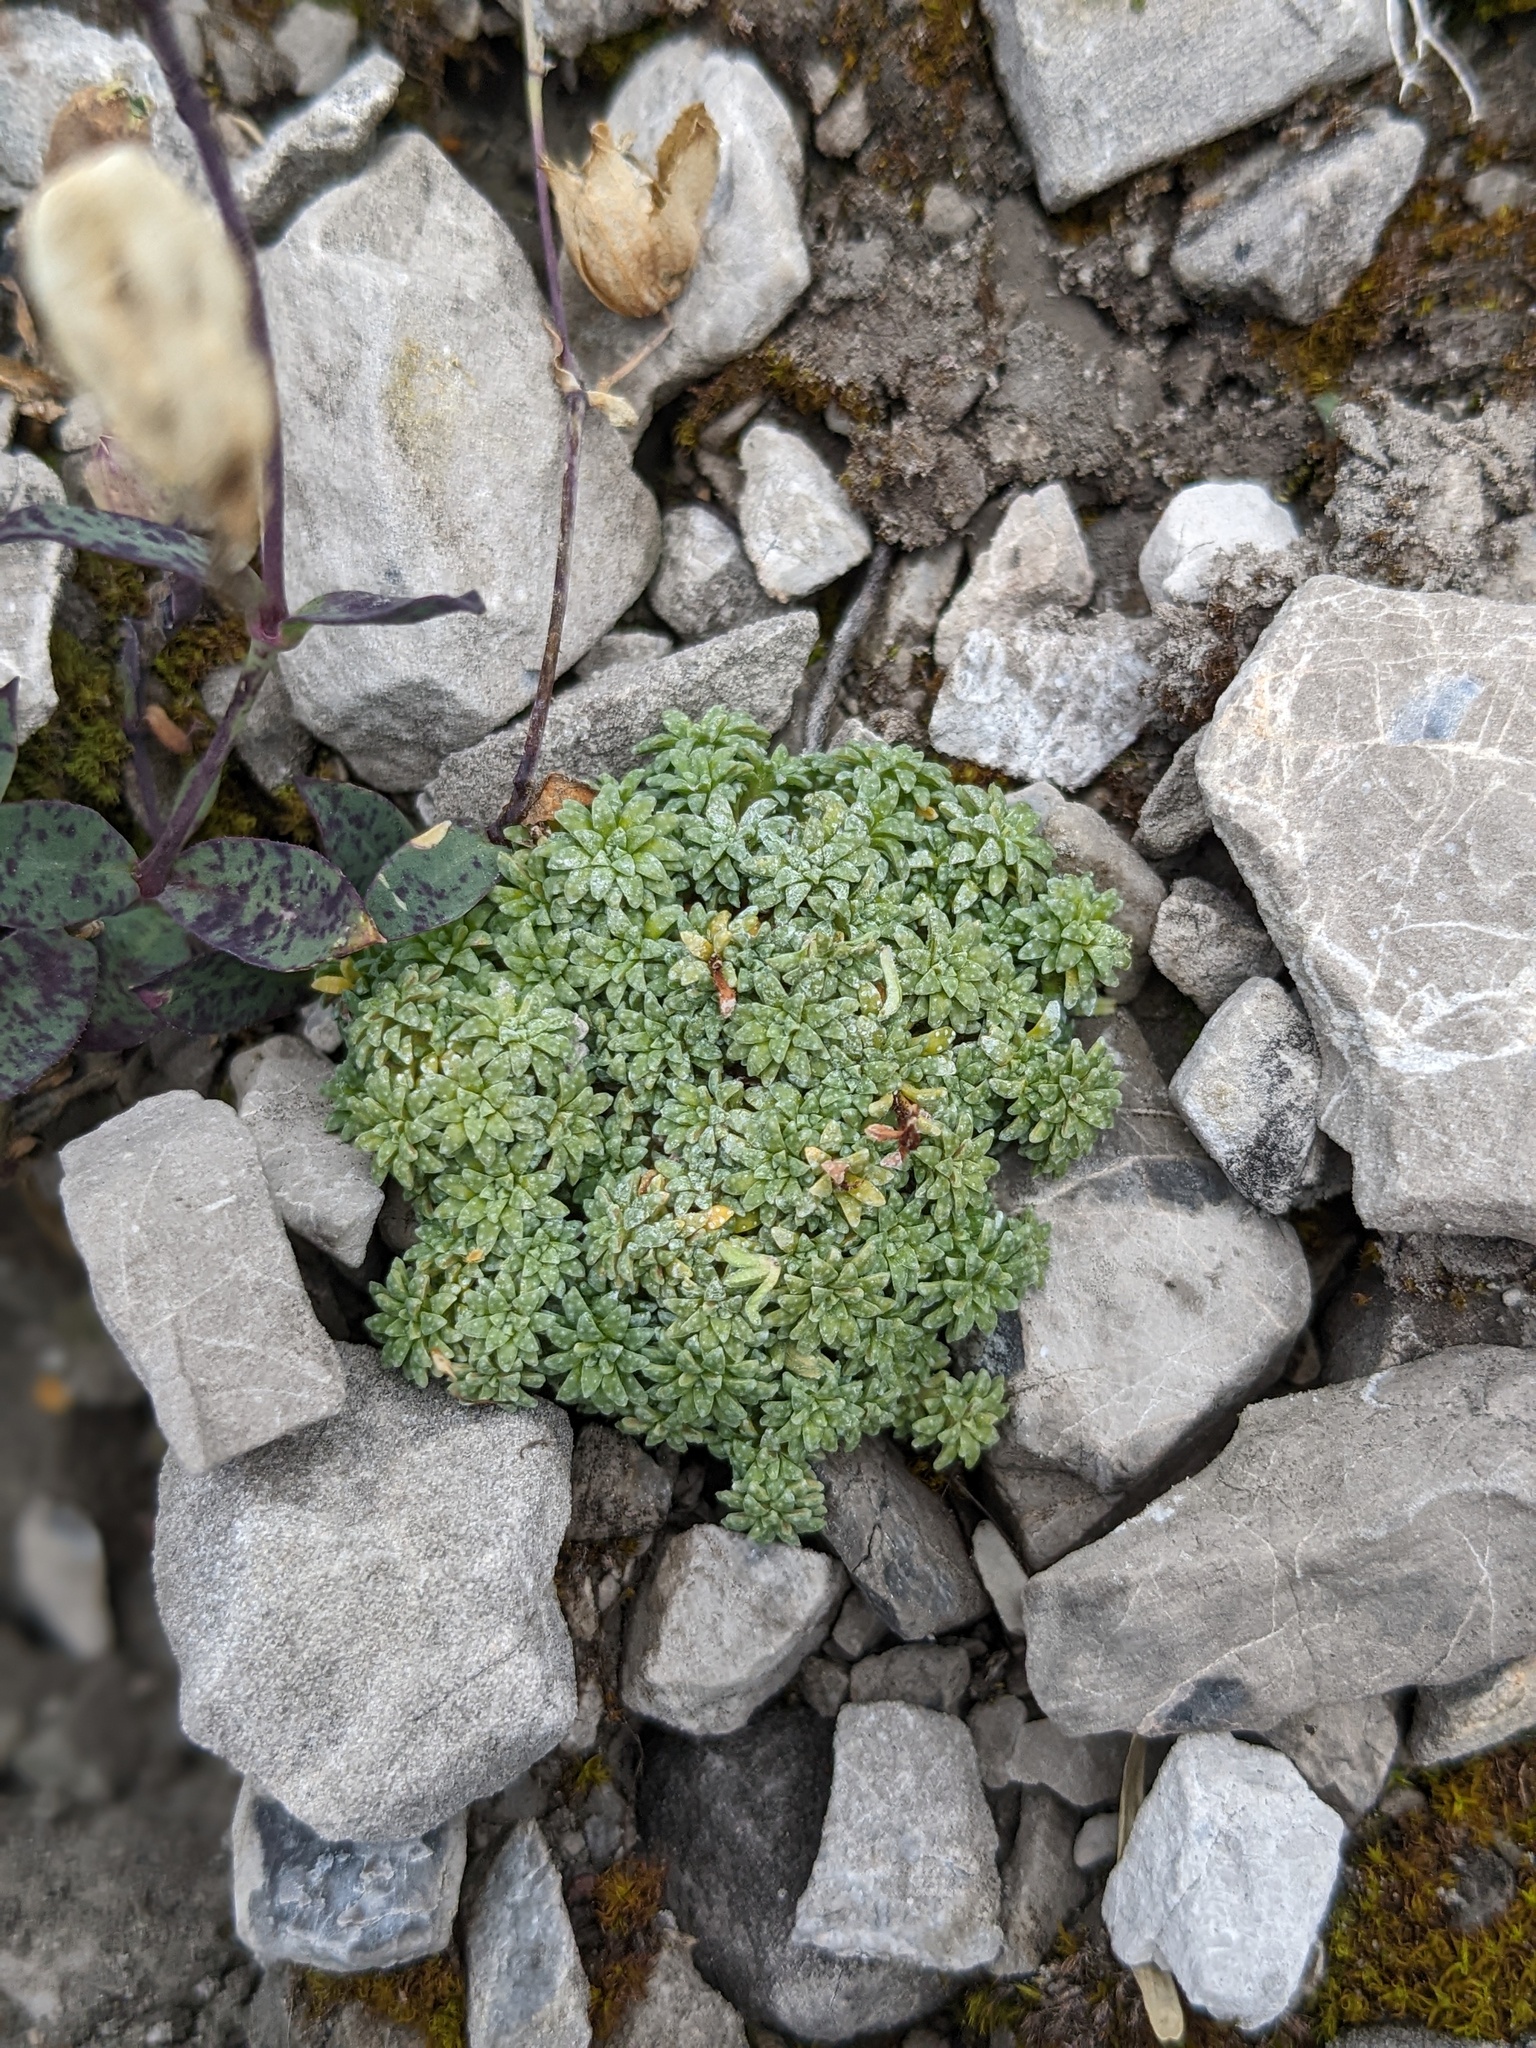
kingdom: Plantae
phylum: Tracheophyta
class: Magnoliopsida
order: Saxifragales
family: Saxifragaceae
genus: Saxifraga
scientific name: Saxifraga caesia
